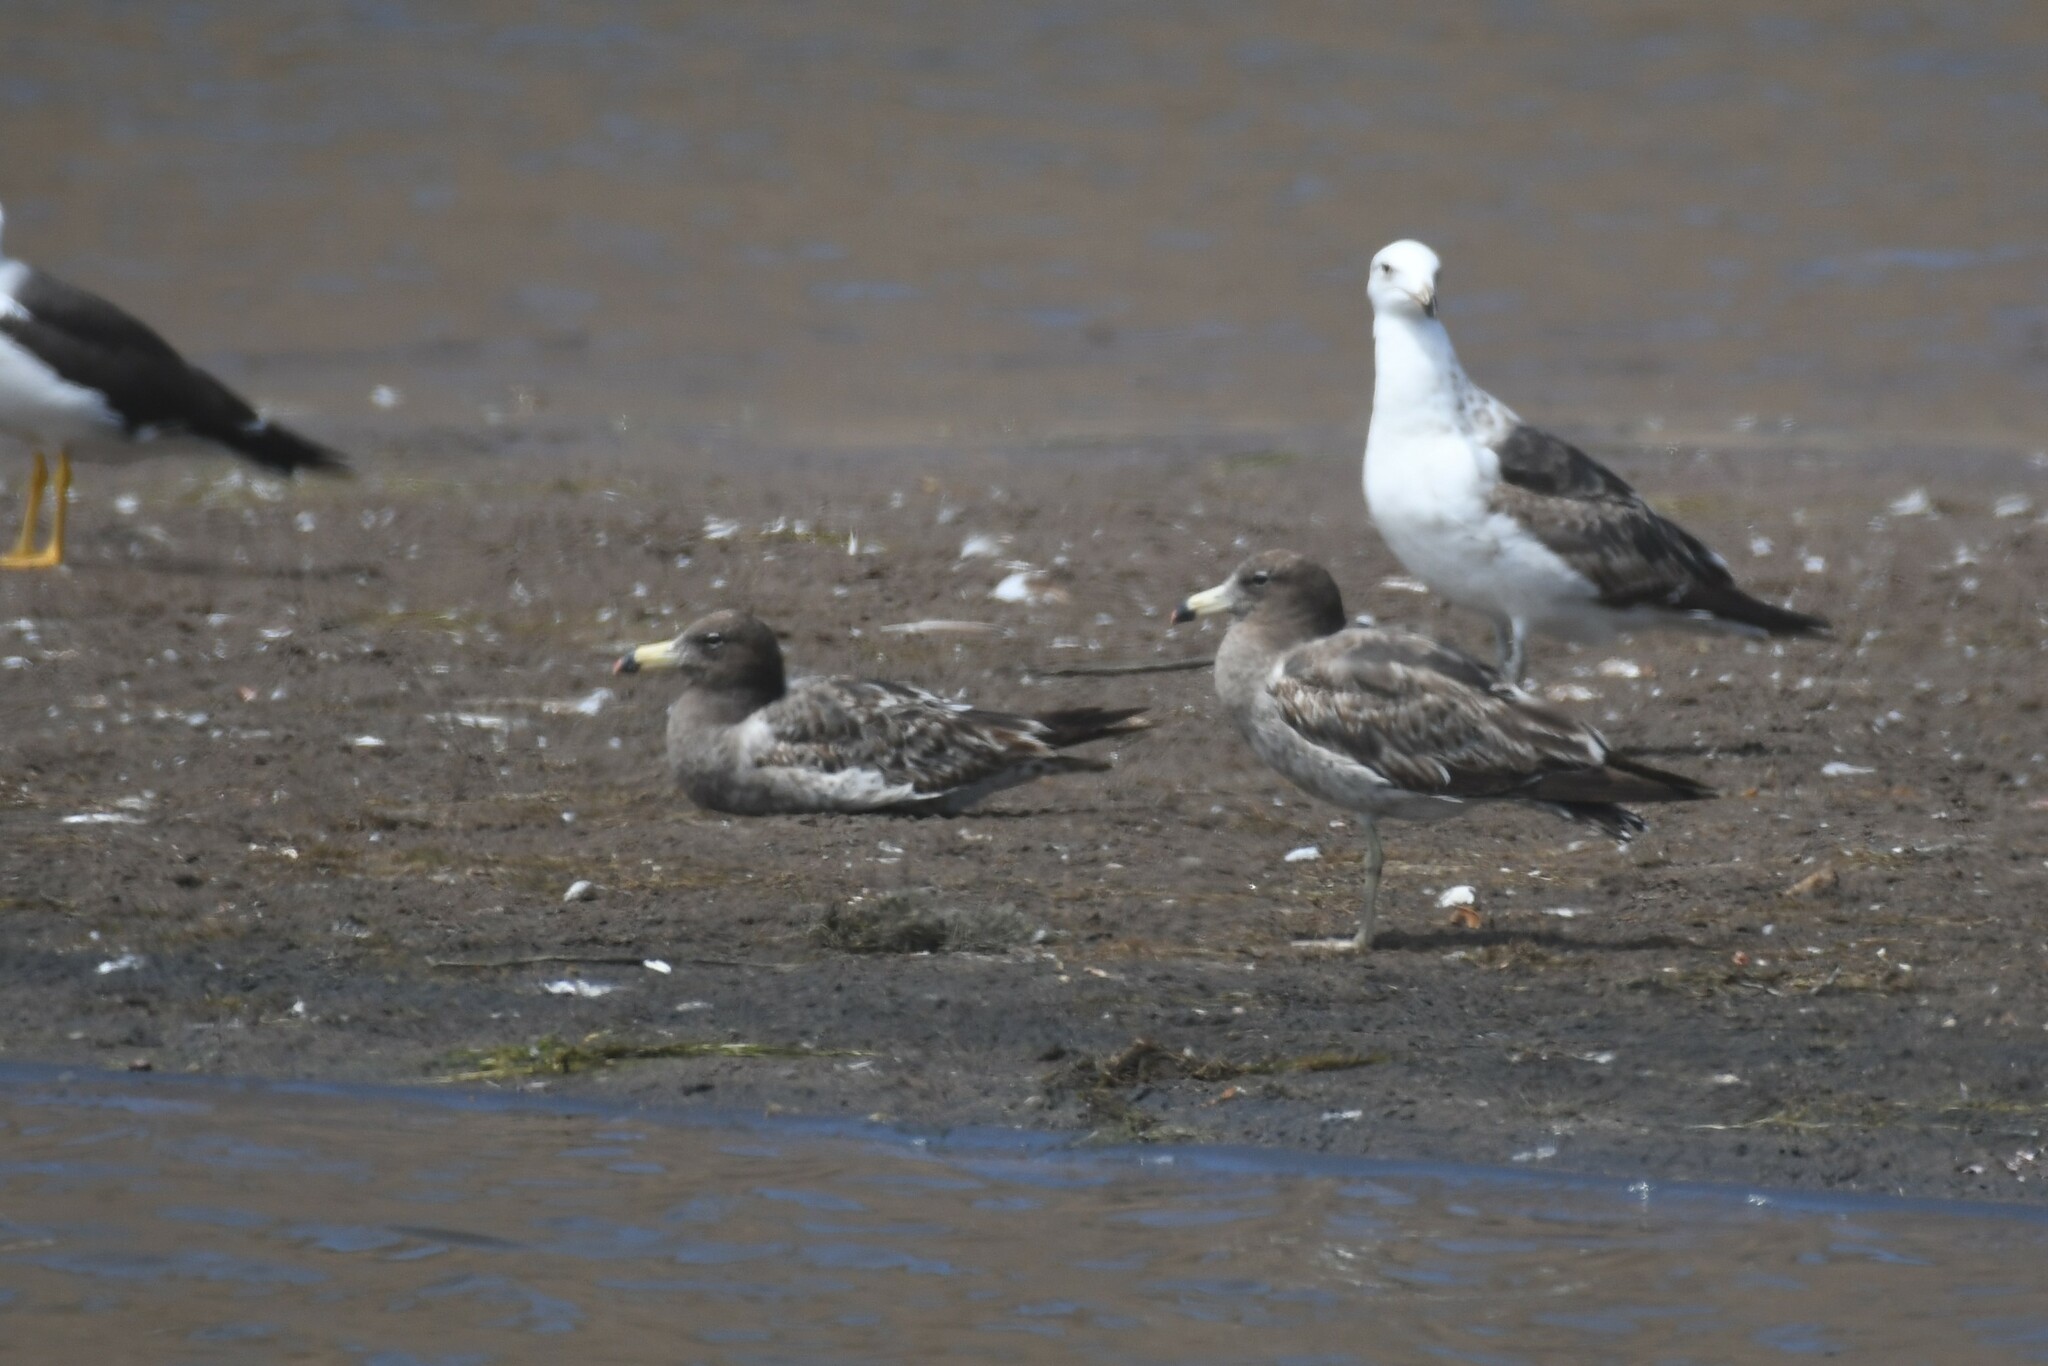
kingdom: Animalia
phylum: Chordata
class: Aves
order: Charadriiformes
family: Laridae
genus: Larus
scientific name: Larus belcheri
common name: Belcher's gull
